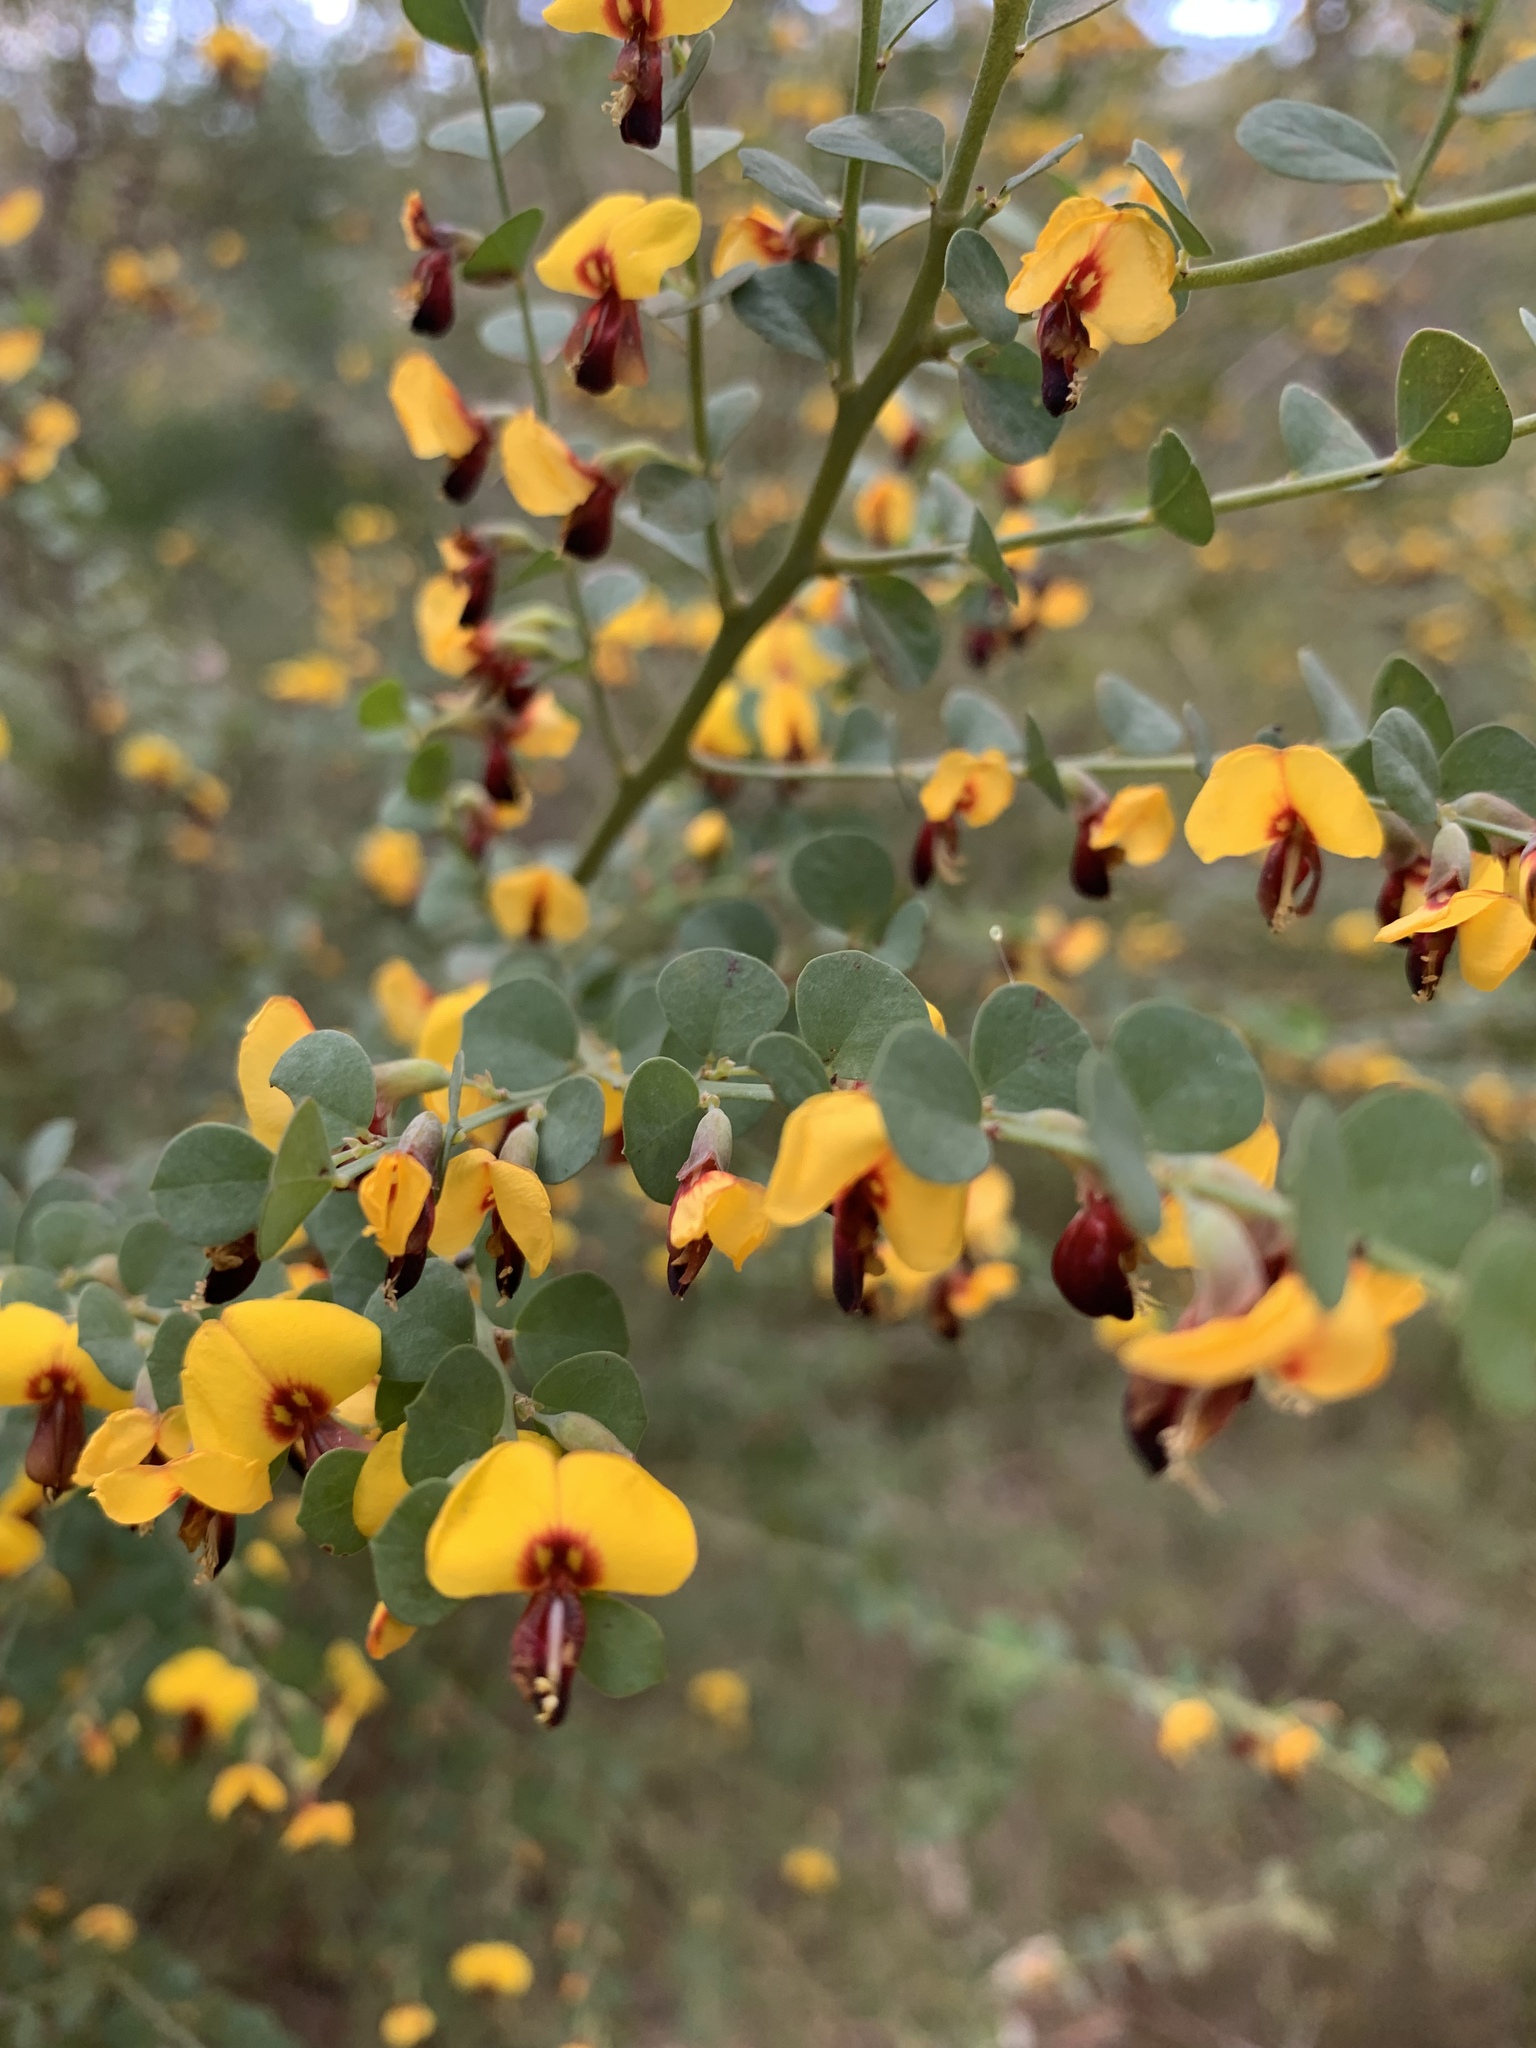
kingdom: Plantae
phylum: Tracheophyta
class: Magnoliopsida
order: Fabales
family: Fabaceae
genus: Bossiaea
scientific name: Bossiaea rhombifolia
